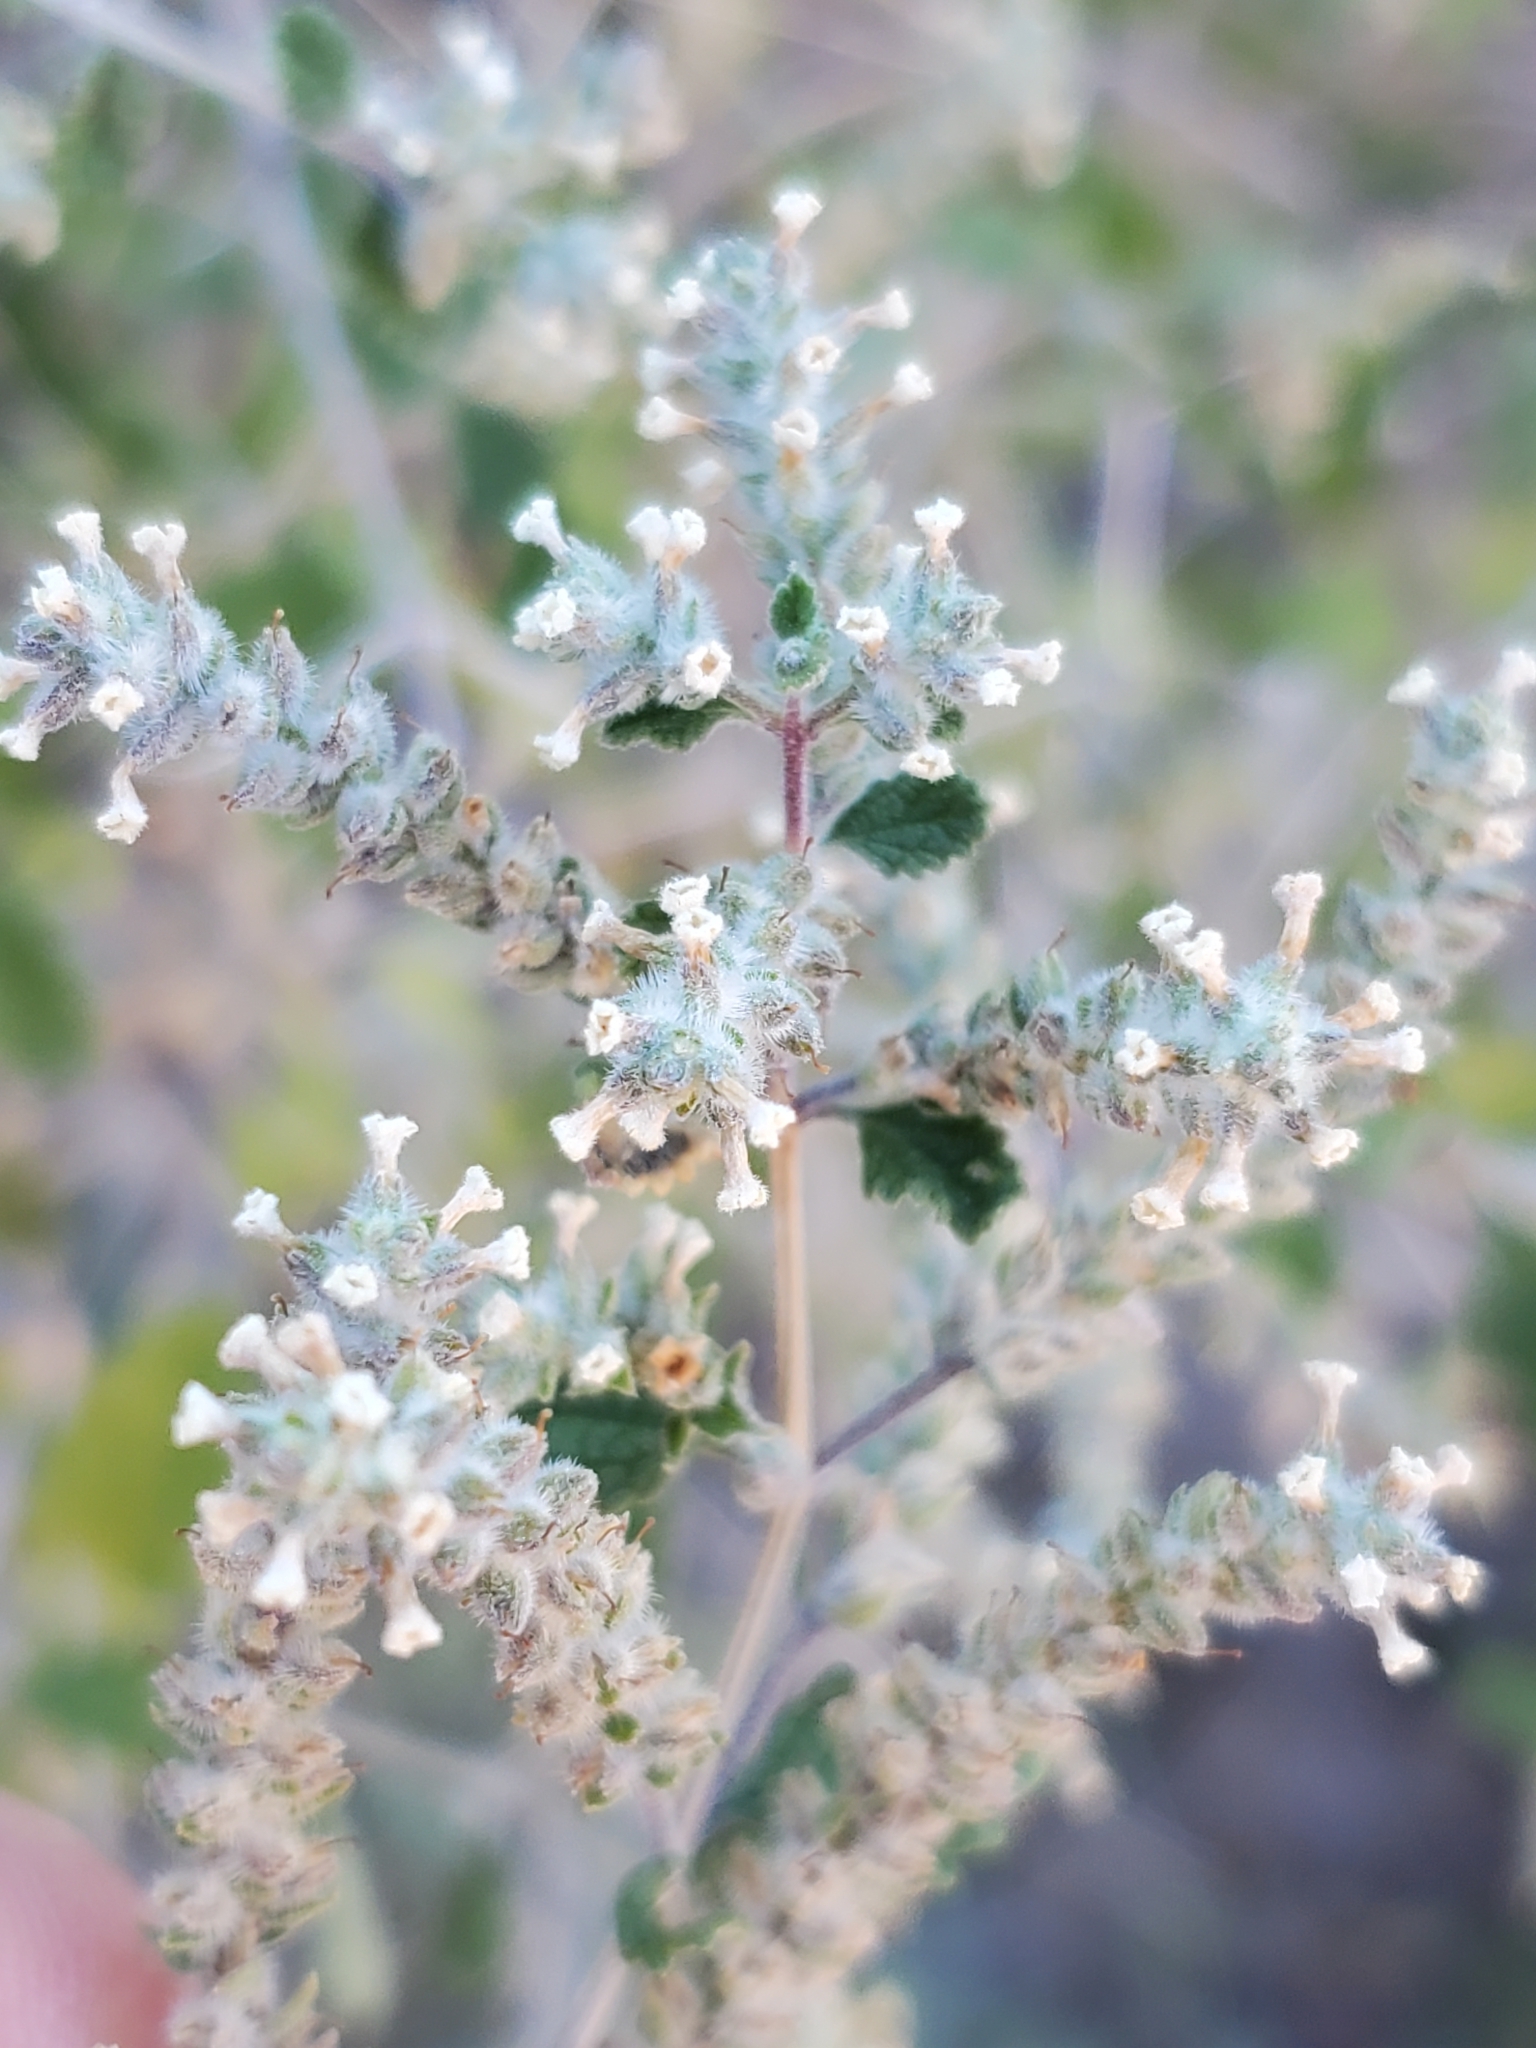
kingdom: Plantae
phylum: Tracheophyta
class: Magnoliopsida
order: Lamiales
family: Verbenaceae
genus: Aloysia
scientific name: Aloysia wrightii
